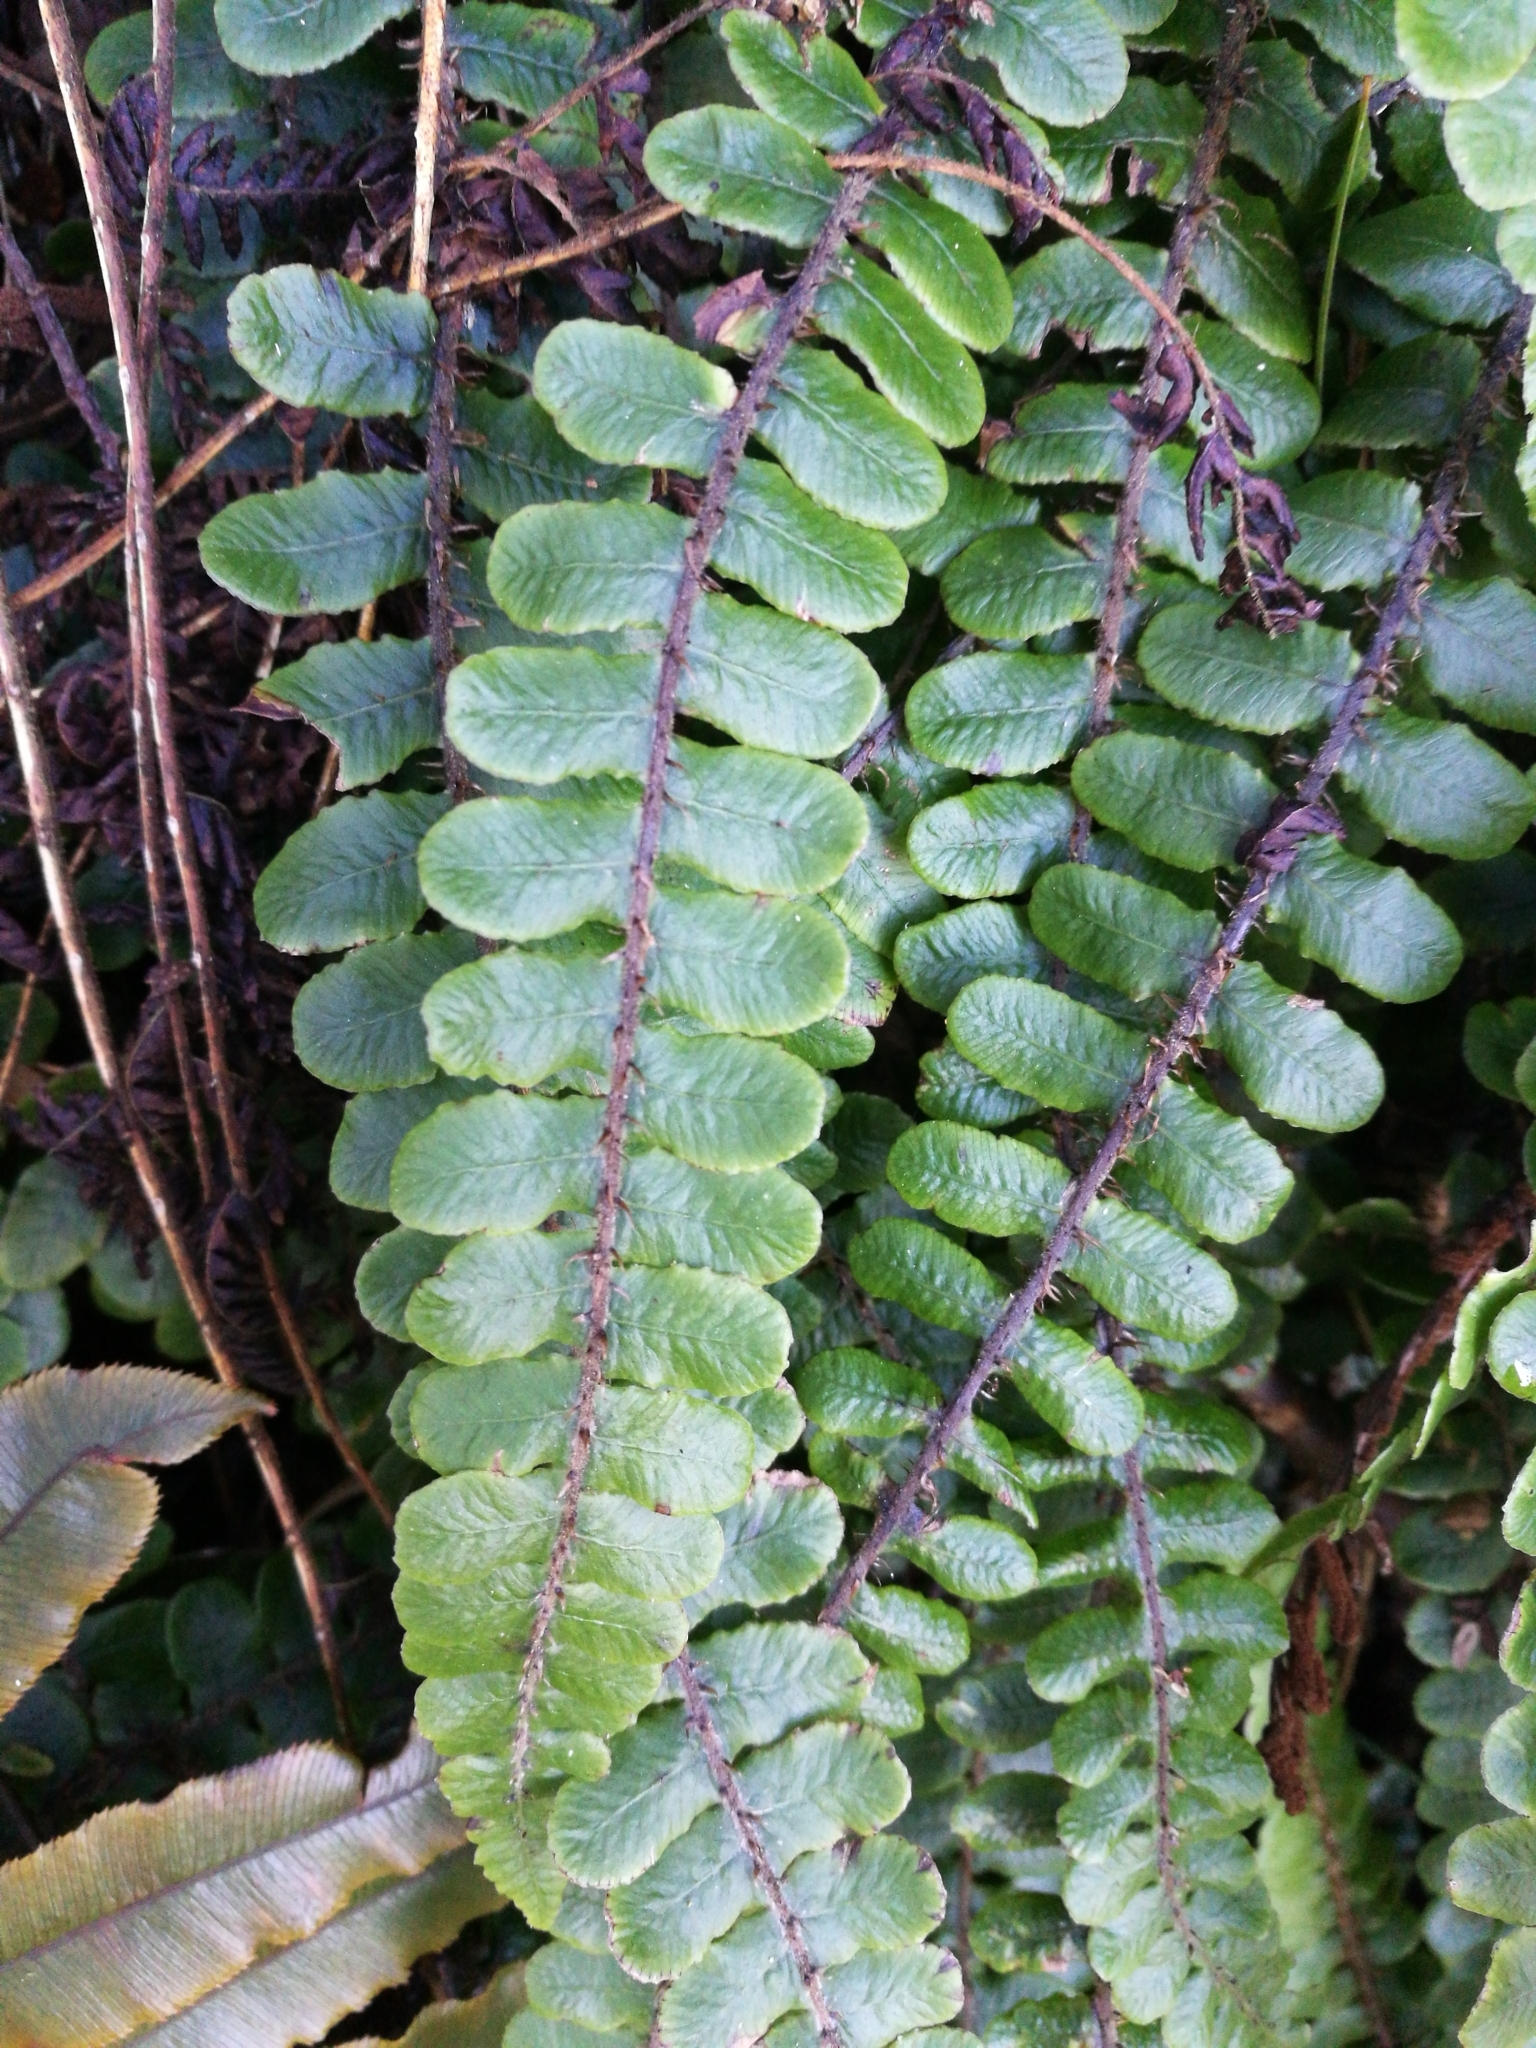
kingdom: Plantae
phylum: Tracheophyta
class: Polypodiopsida
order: Polypodiales
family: Blechnaceae
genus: Cranfillia
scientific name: Cranfillia fluviatilis
